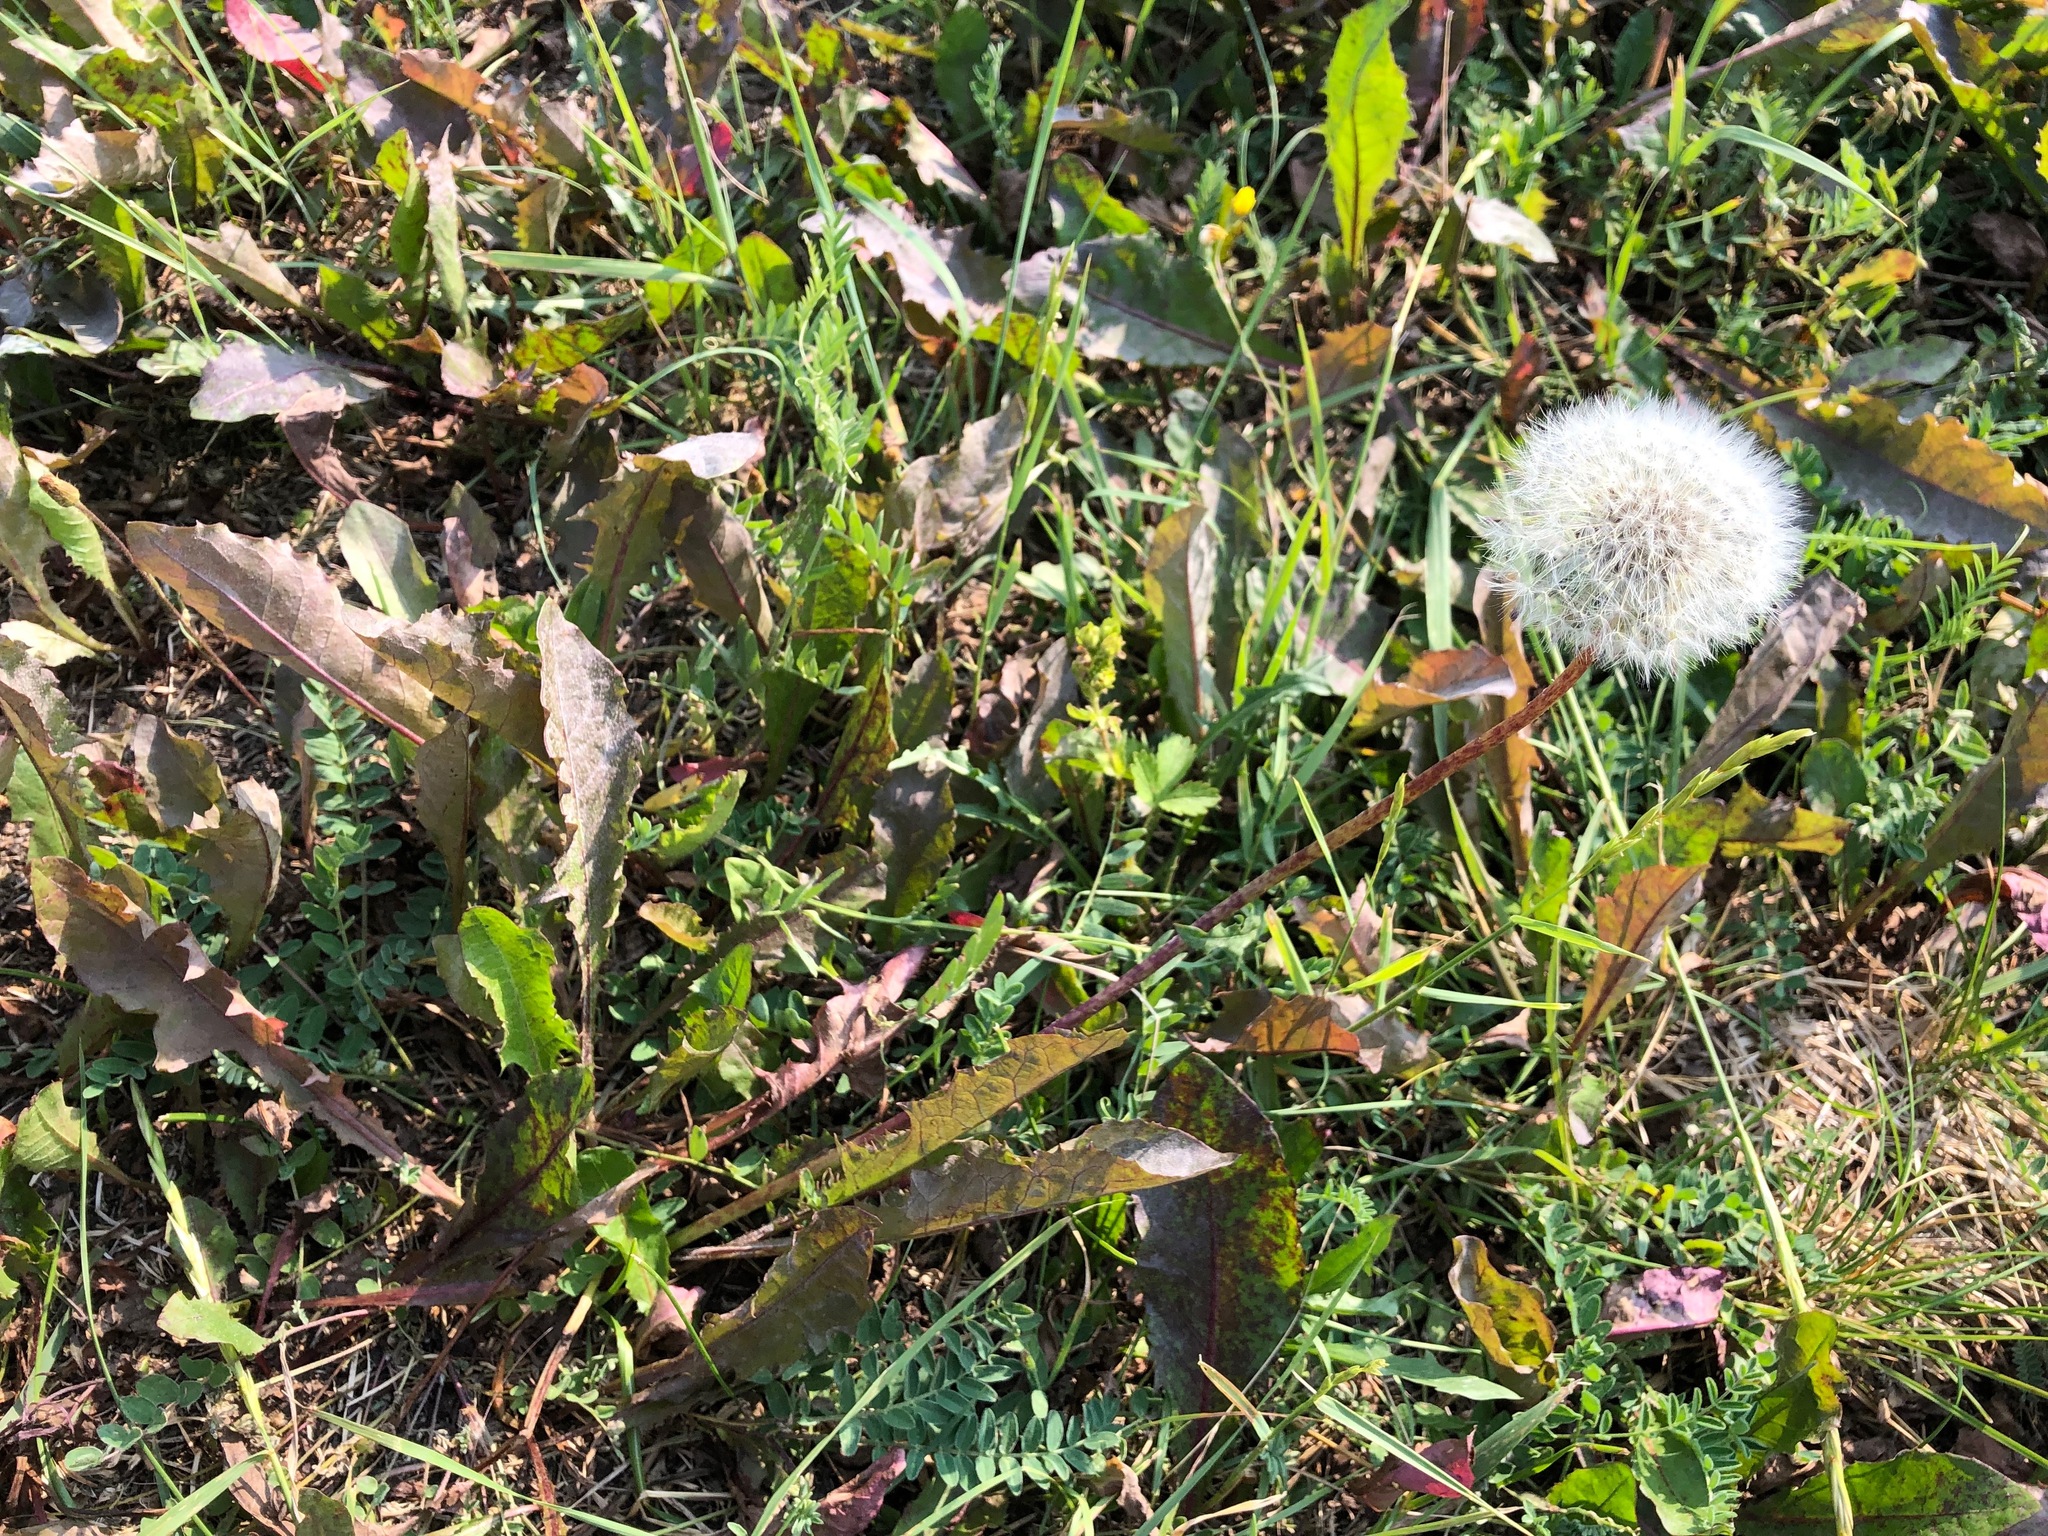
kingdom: Plantae
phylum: Tracheophyta
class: Magnoliopsida
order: Asterales
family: Asteraceae
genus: Taraxacum
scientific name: Taraxacum officinale
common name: Common dandelion
